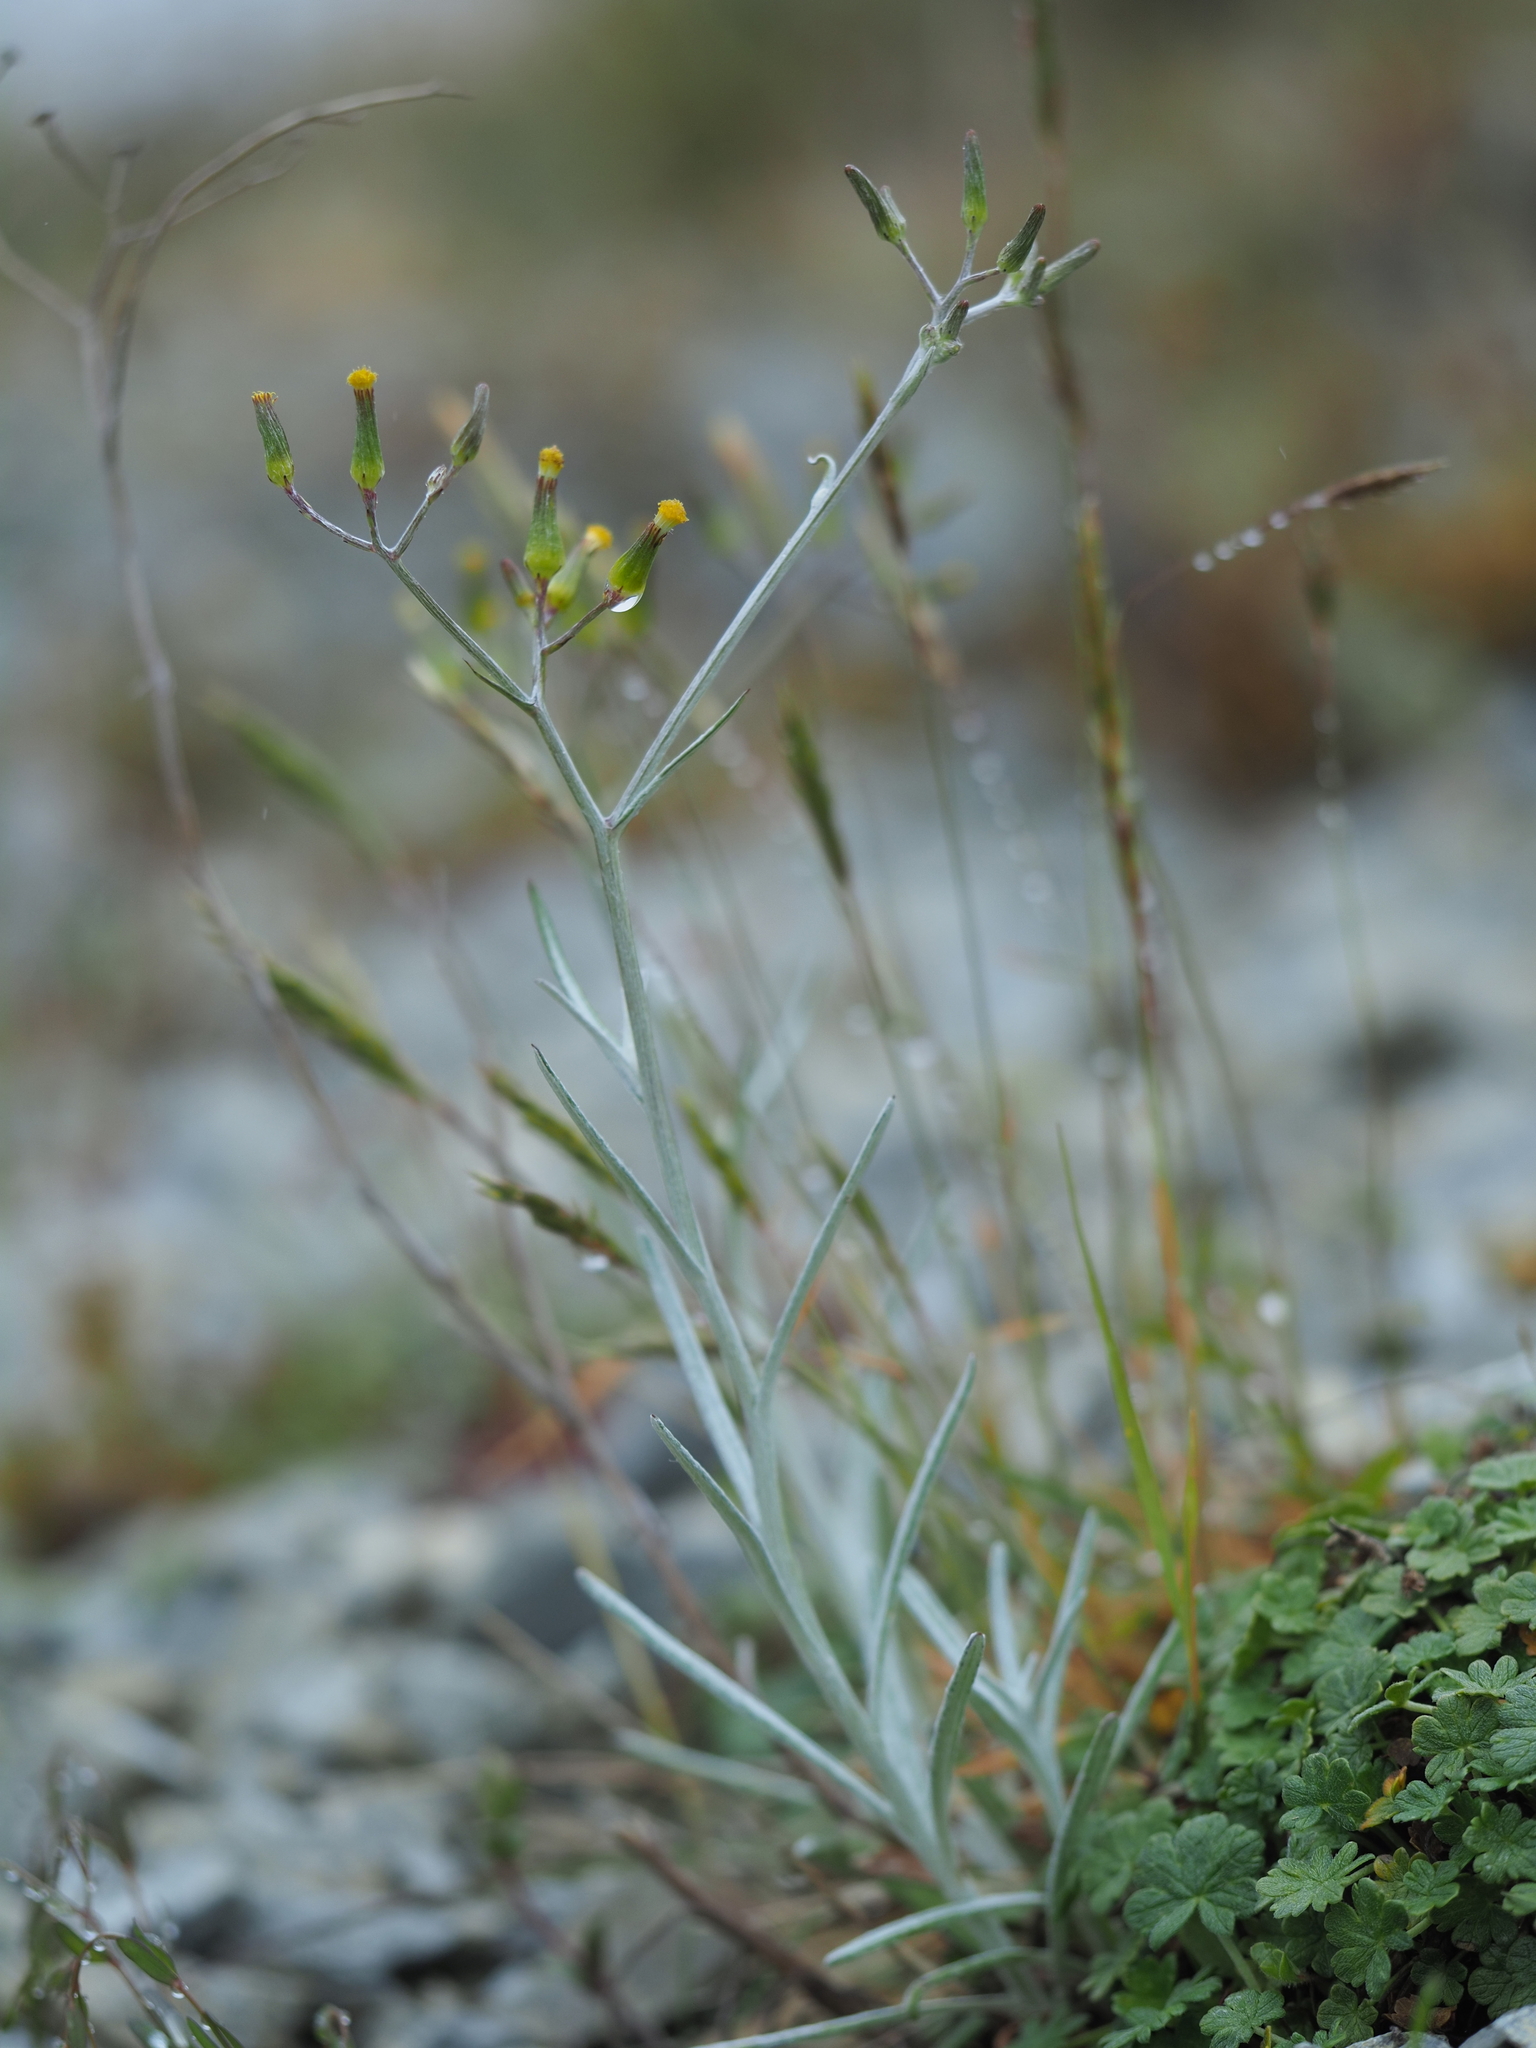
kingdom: Plantae
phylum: Tracheophyta
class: Magnoliopsida
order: Asterales
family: Asteraceae
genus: Senecio
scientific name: Senecio quadridentatus
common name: Cotton fireweed
